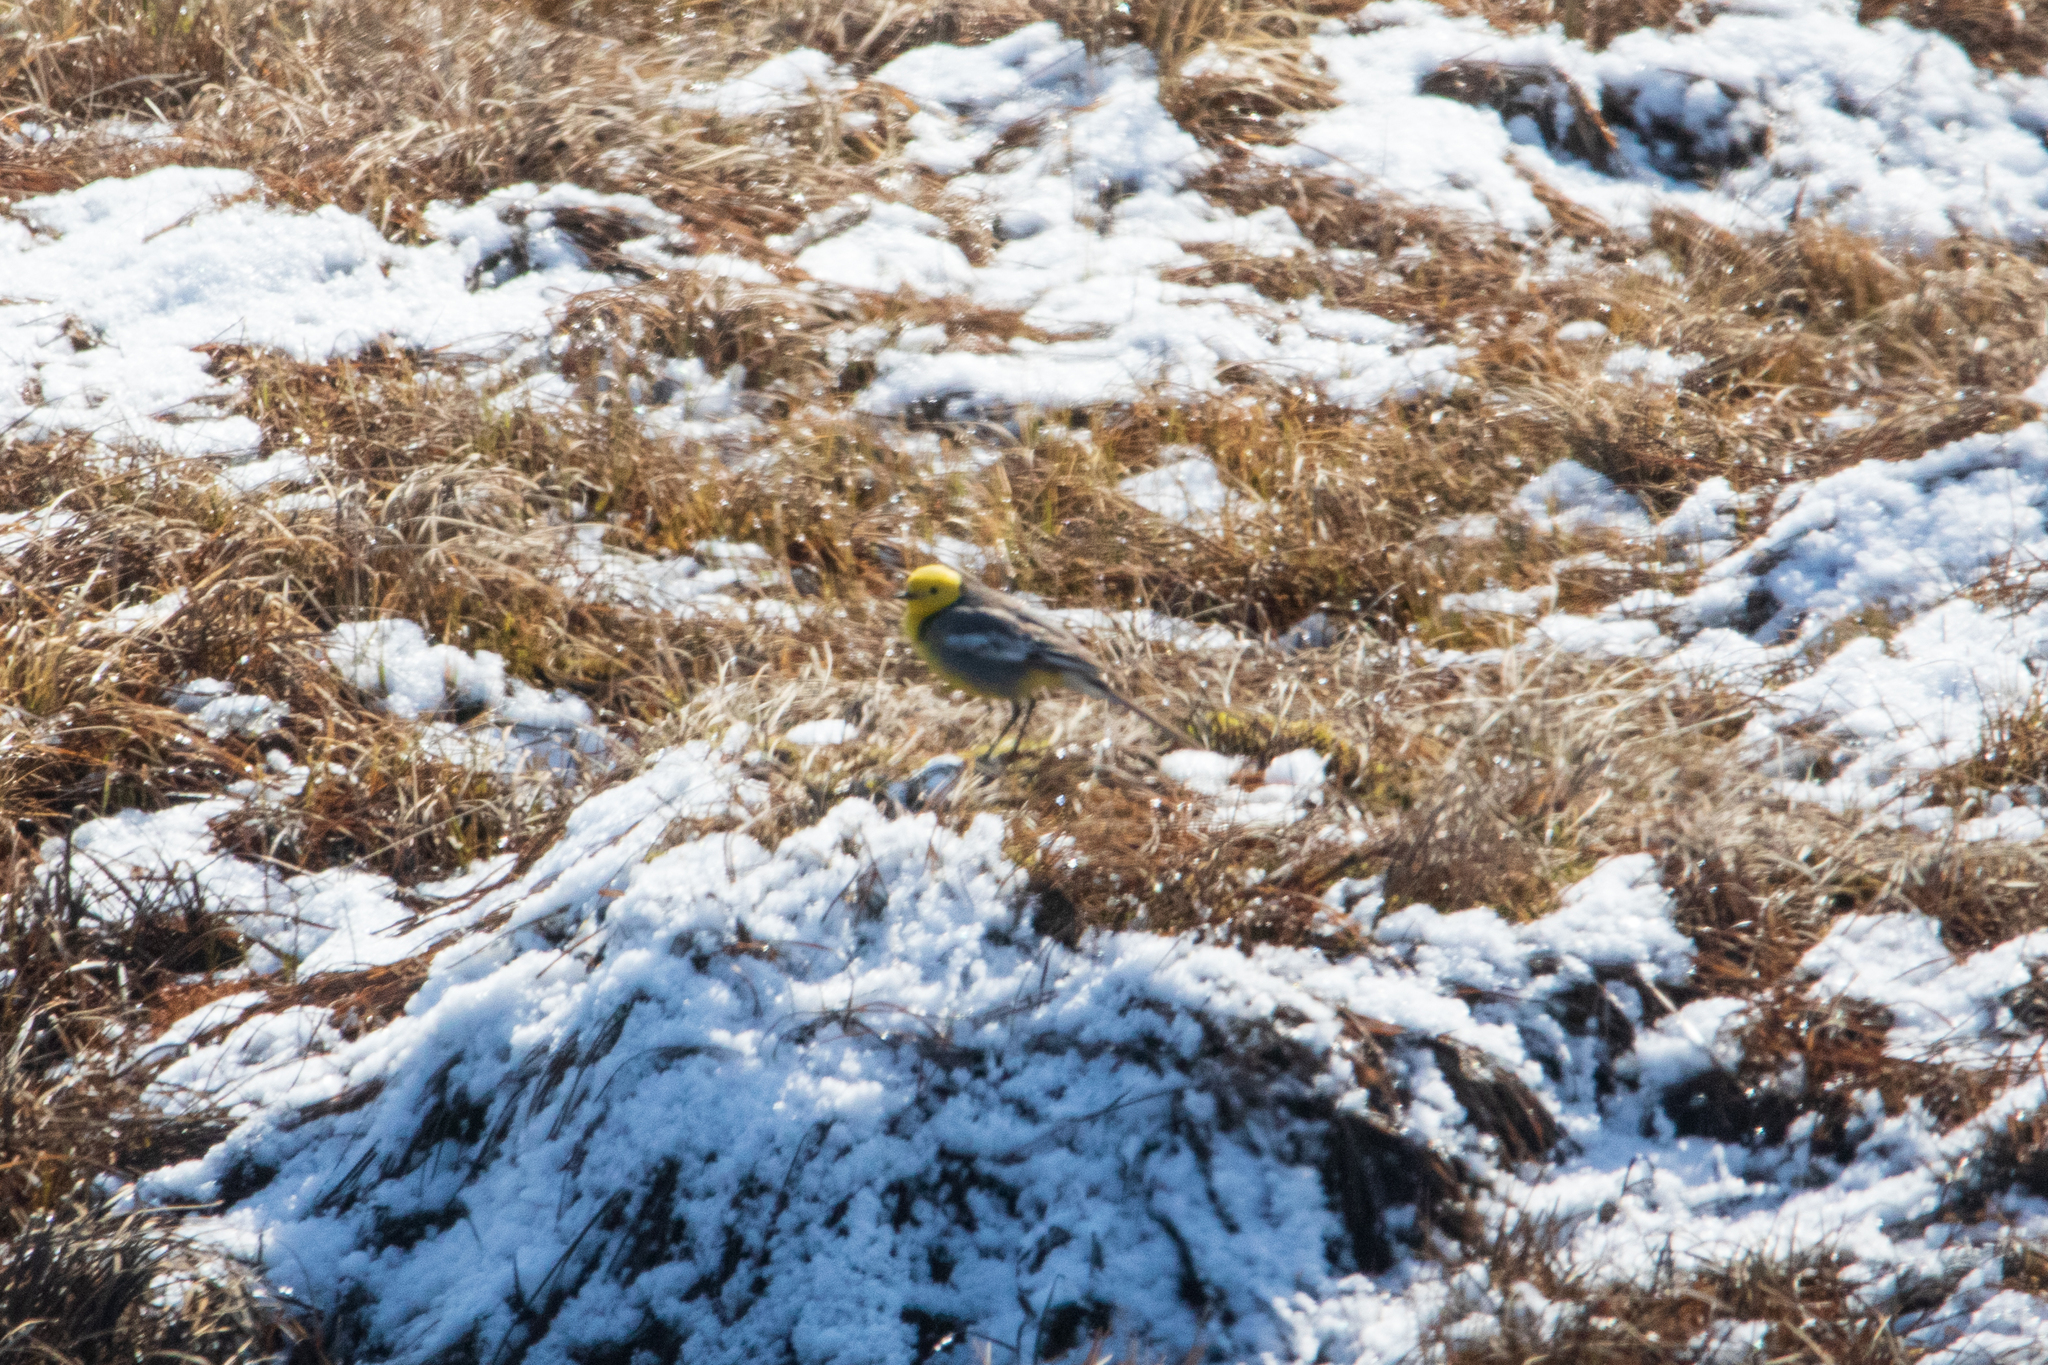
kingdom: Animalia
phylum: Chordata
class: Aves
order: Passeriformes
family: Motacillidae
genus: Motacilla
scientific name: Motacilla citreola
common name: Citrine wagtail
